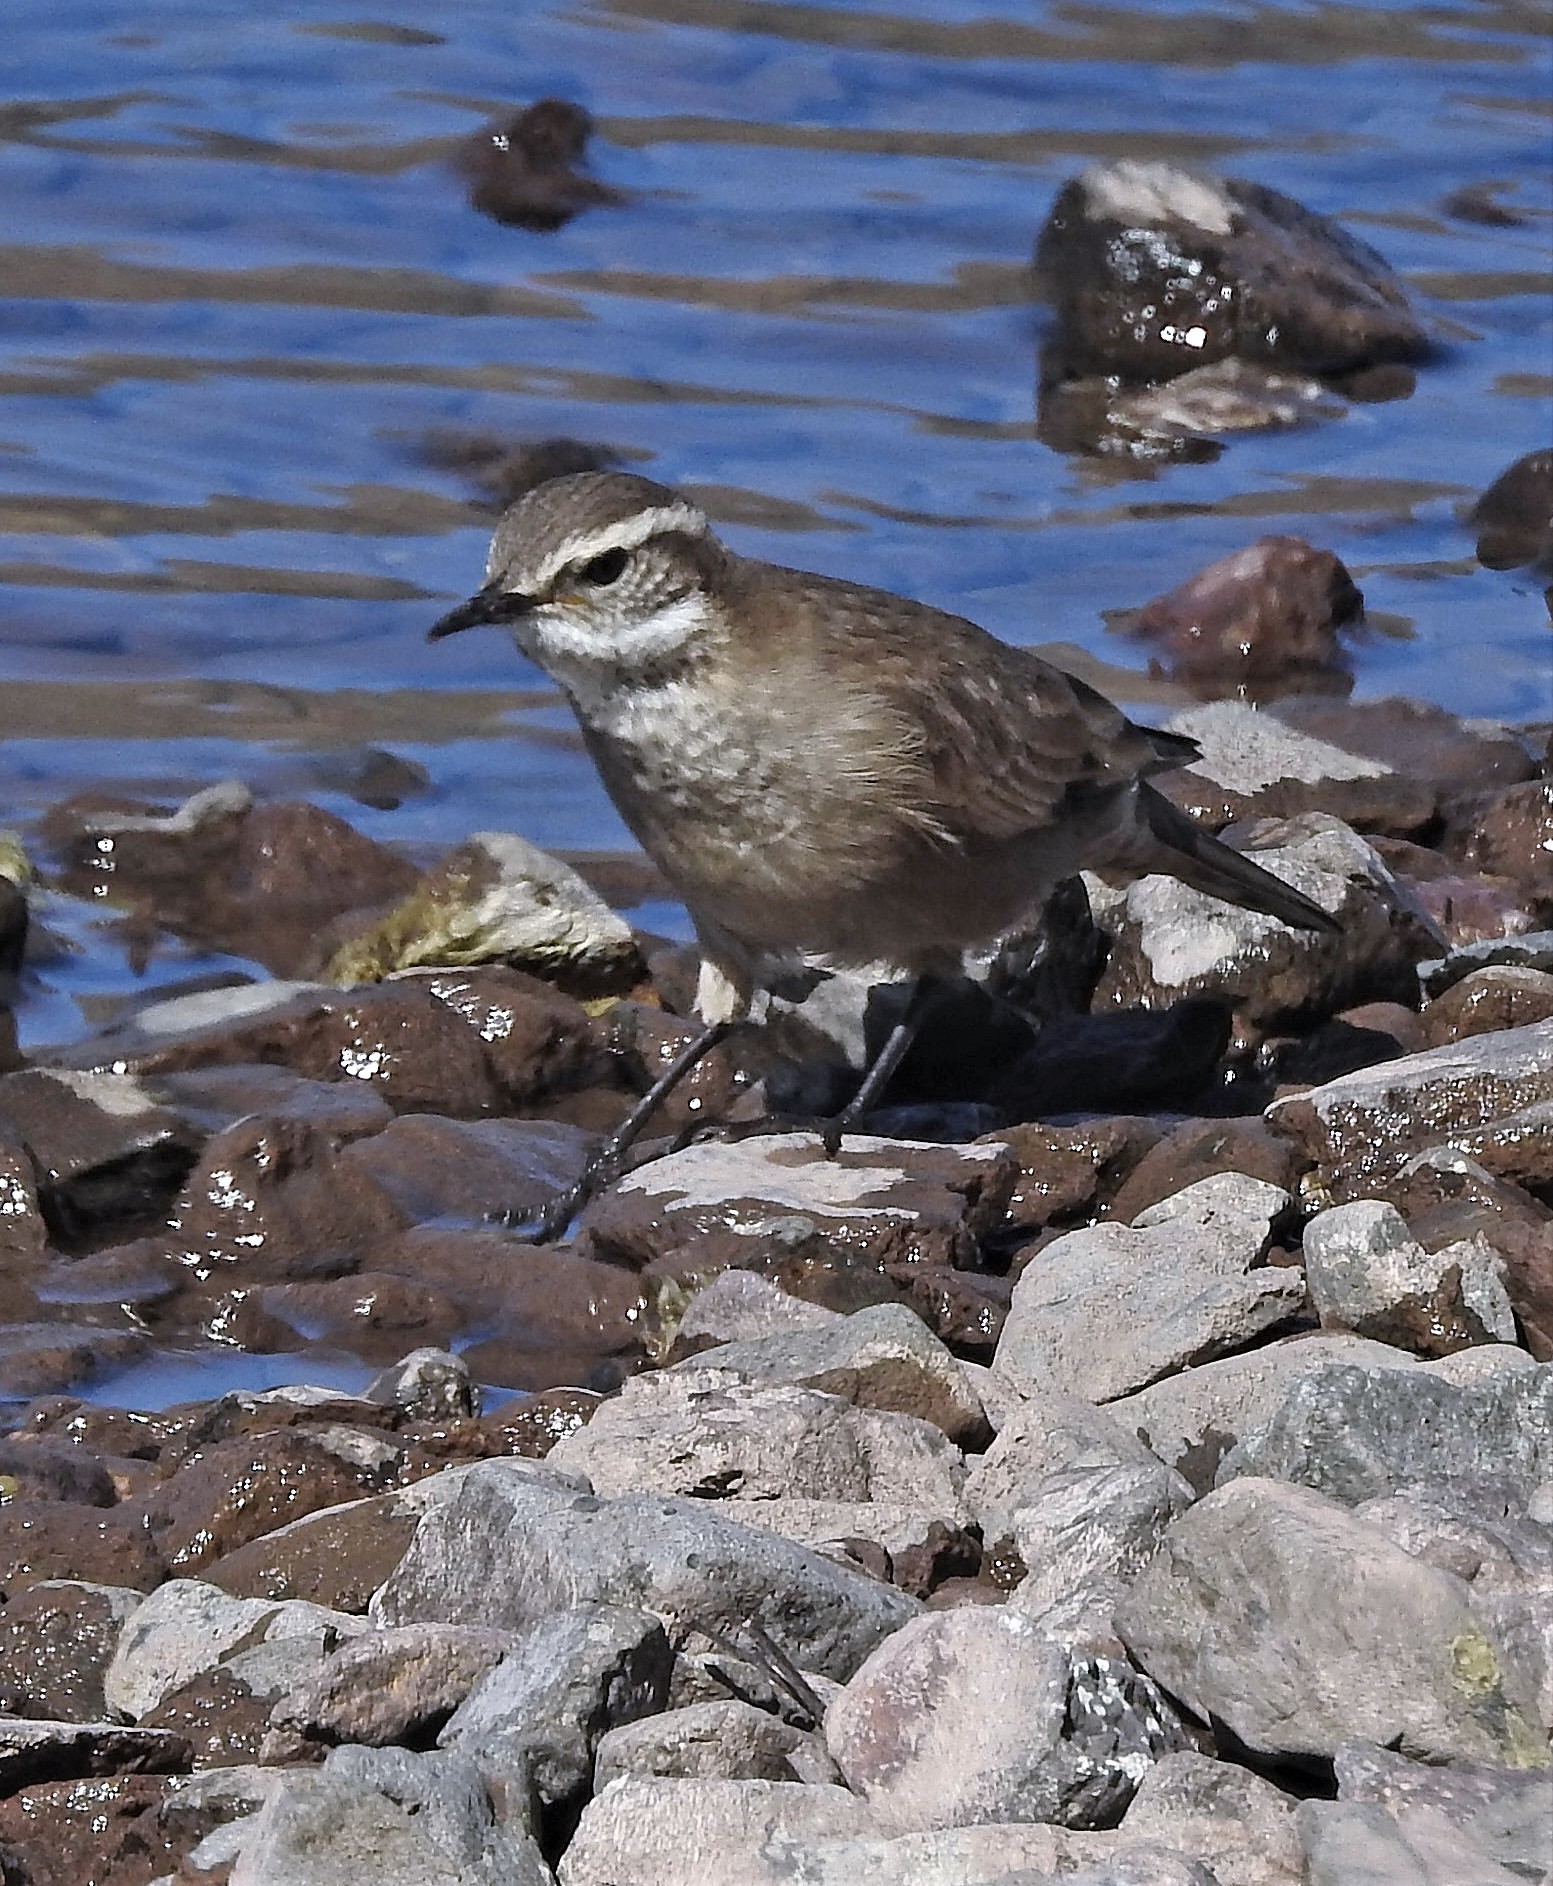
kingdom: Animalia
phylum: Chordata
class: Aves
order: Passeriformes
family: Furnariidae
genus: Cinclodes
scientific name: Cinclodes oustaleti
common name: Grey-flanked cinclodes
